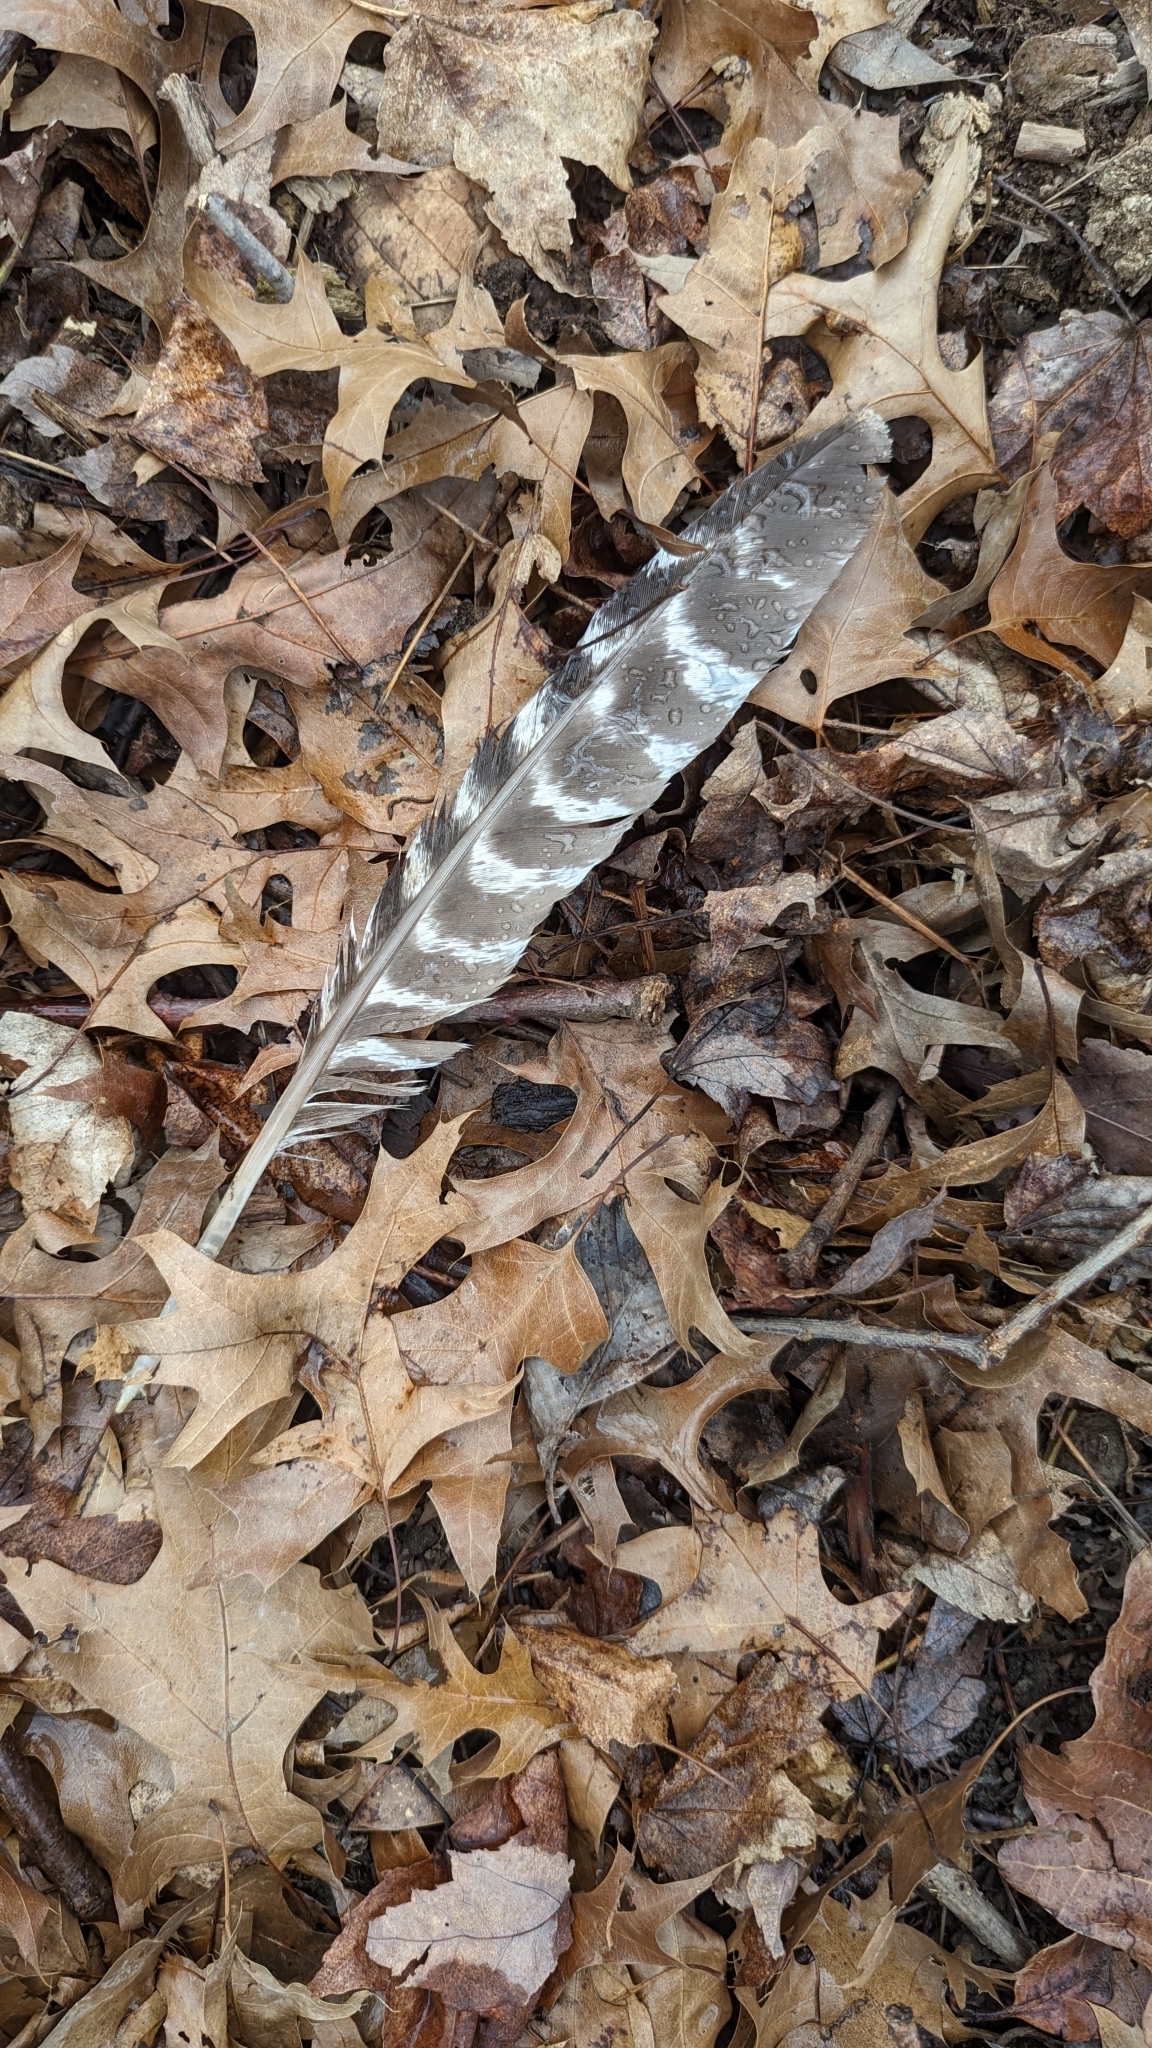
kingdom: Animalia
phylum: Chordata
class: Aves
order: Galliformes
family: Phasianidae
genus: Meleagris
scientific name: Meleagris gallopavo
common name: Wild turkey
